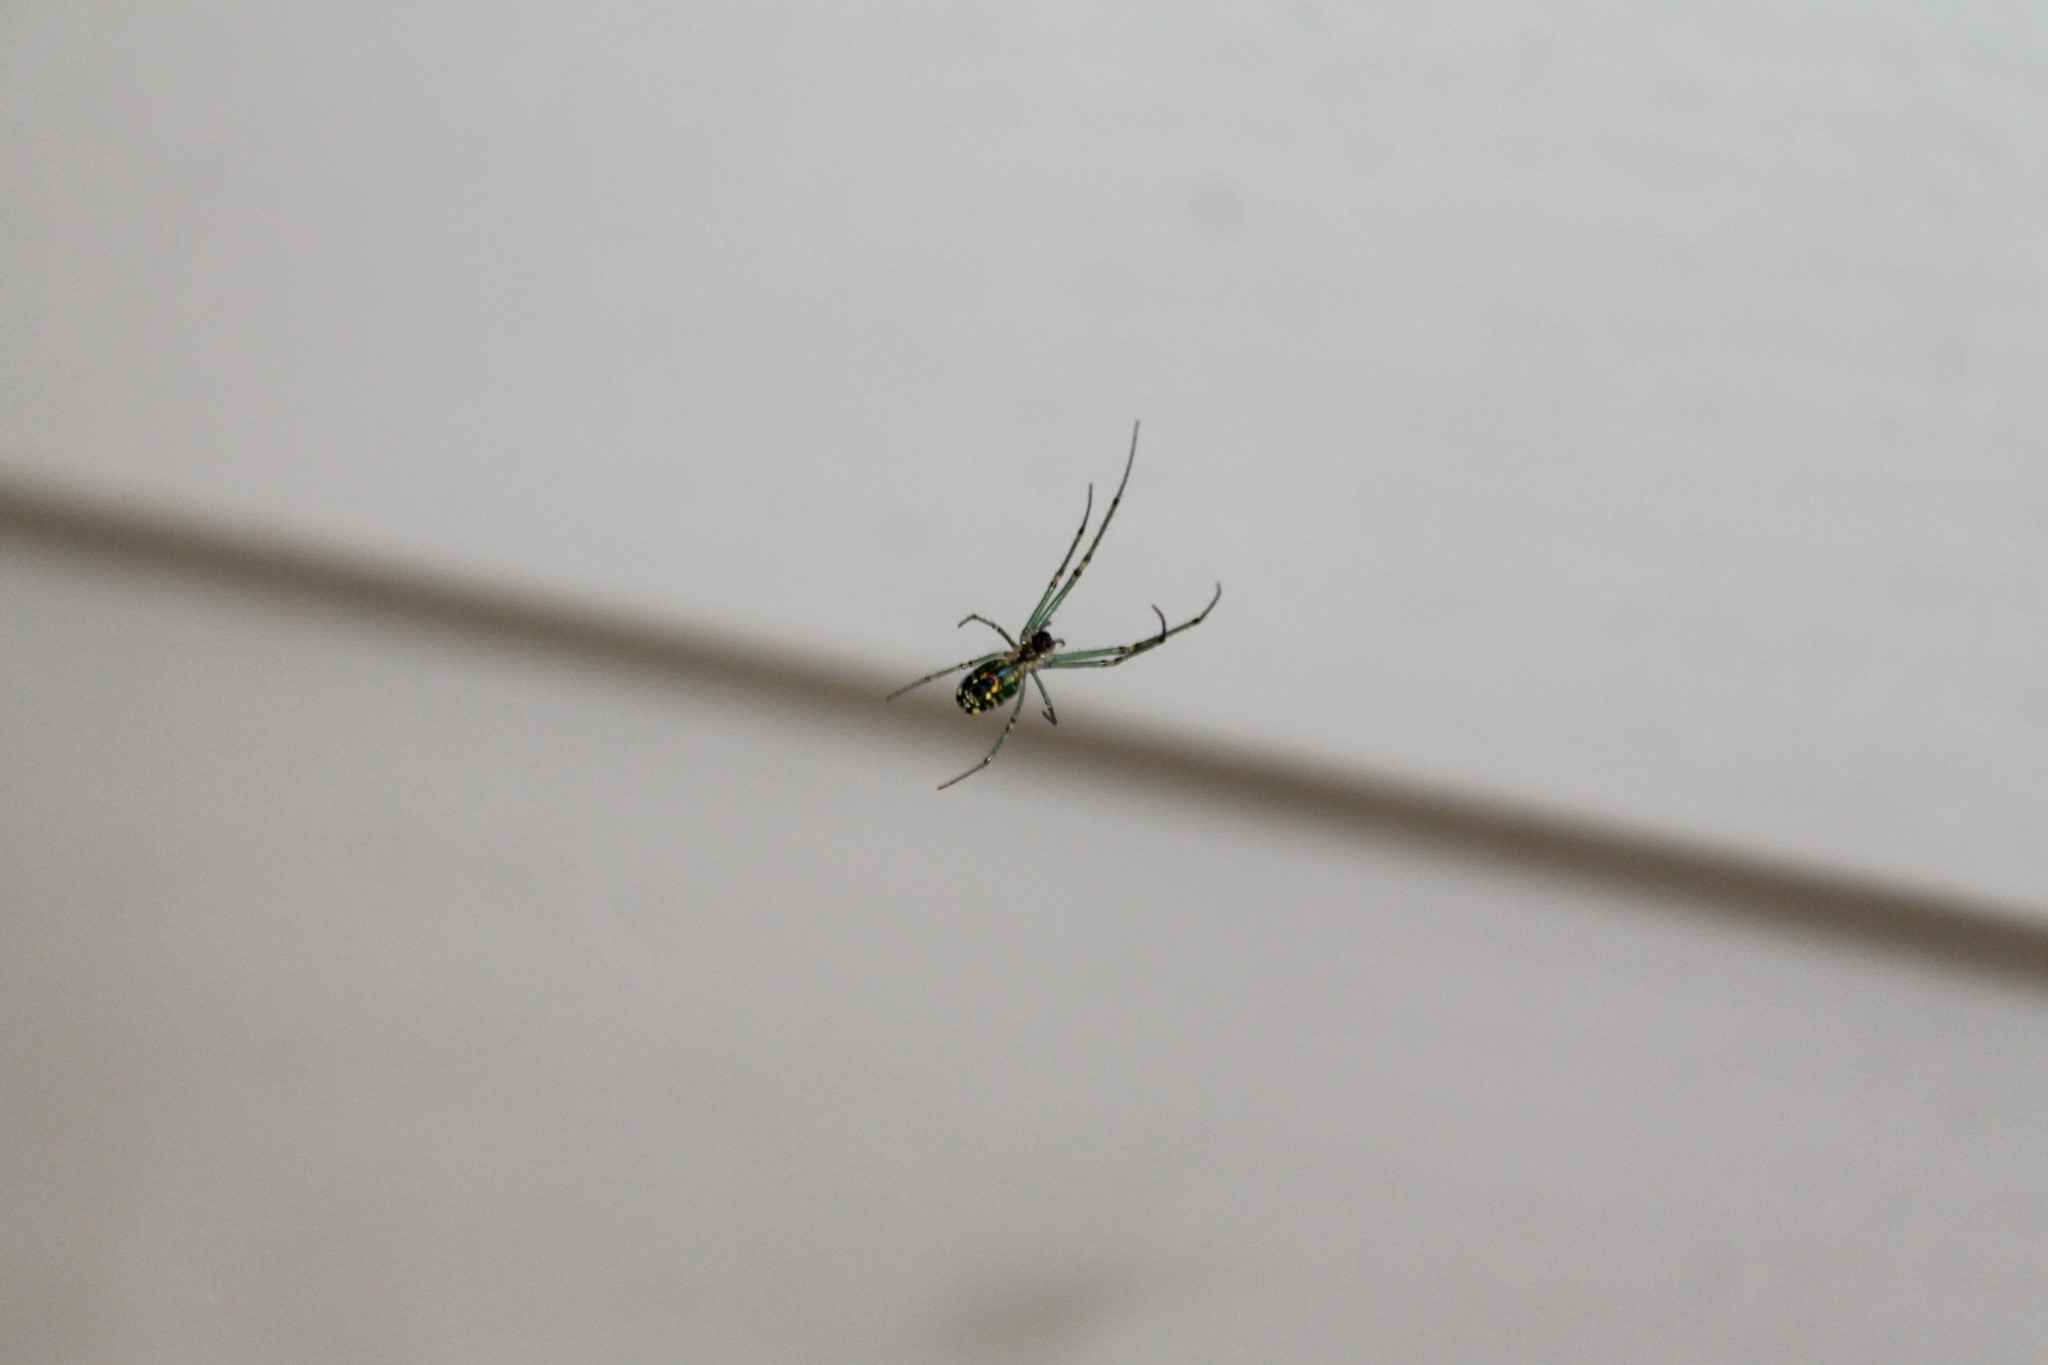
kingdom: Animalia
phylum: Arthropoda
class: Arachnida
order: Araneae
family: Tetragnathidae
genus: Leucauge
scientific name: Leucauge venusta
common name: Longjawed orb weavers
